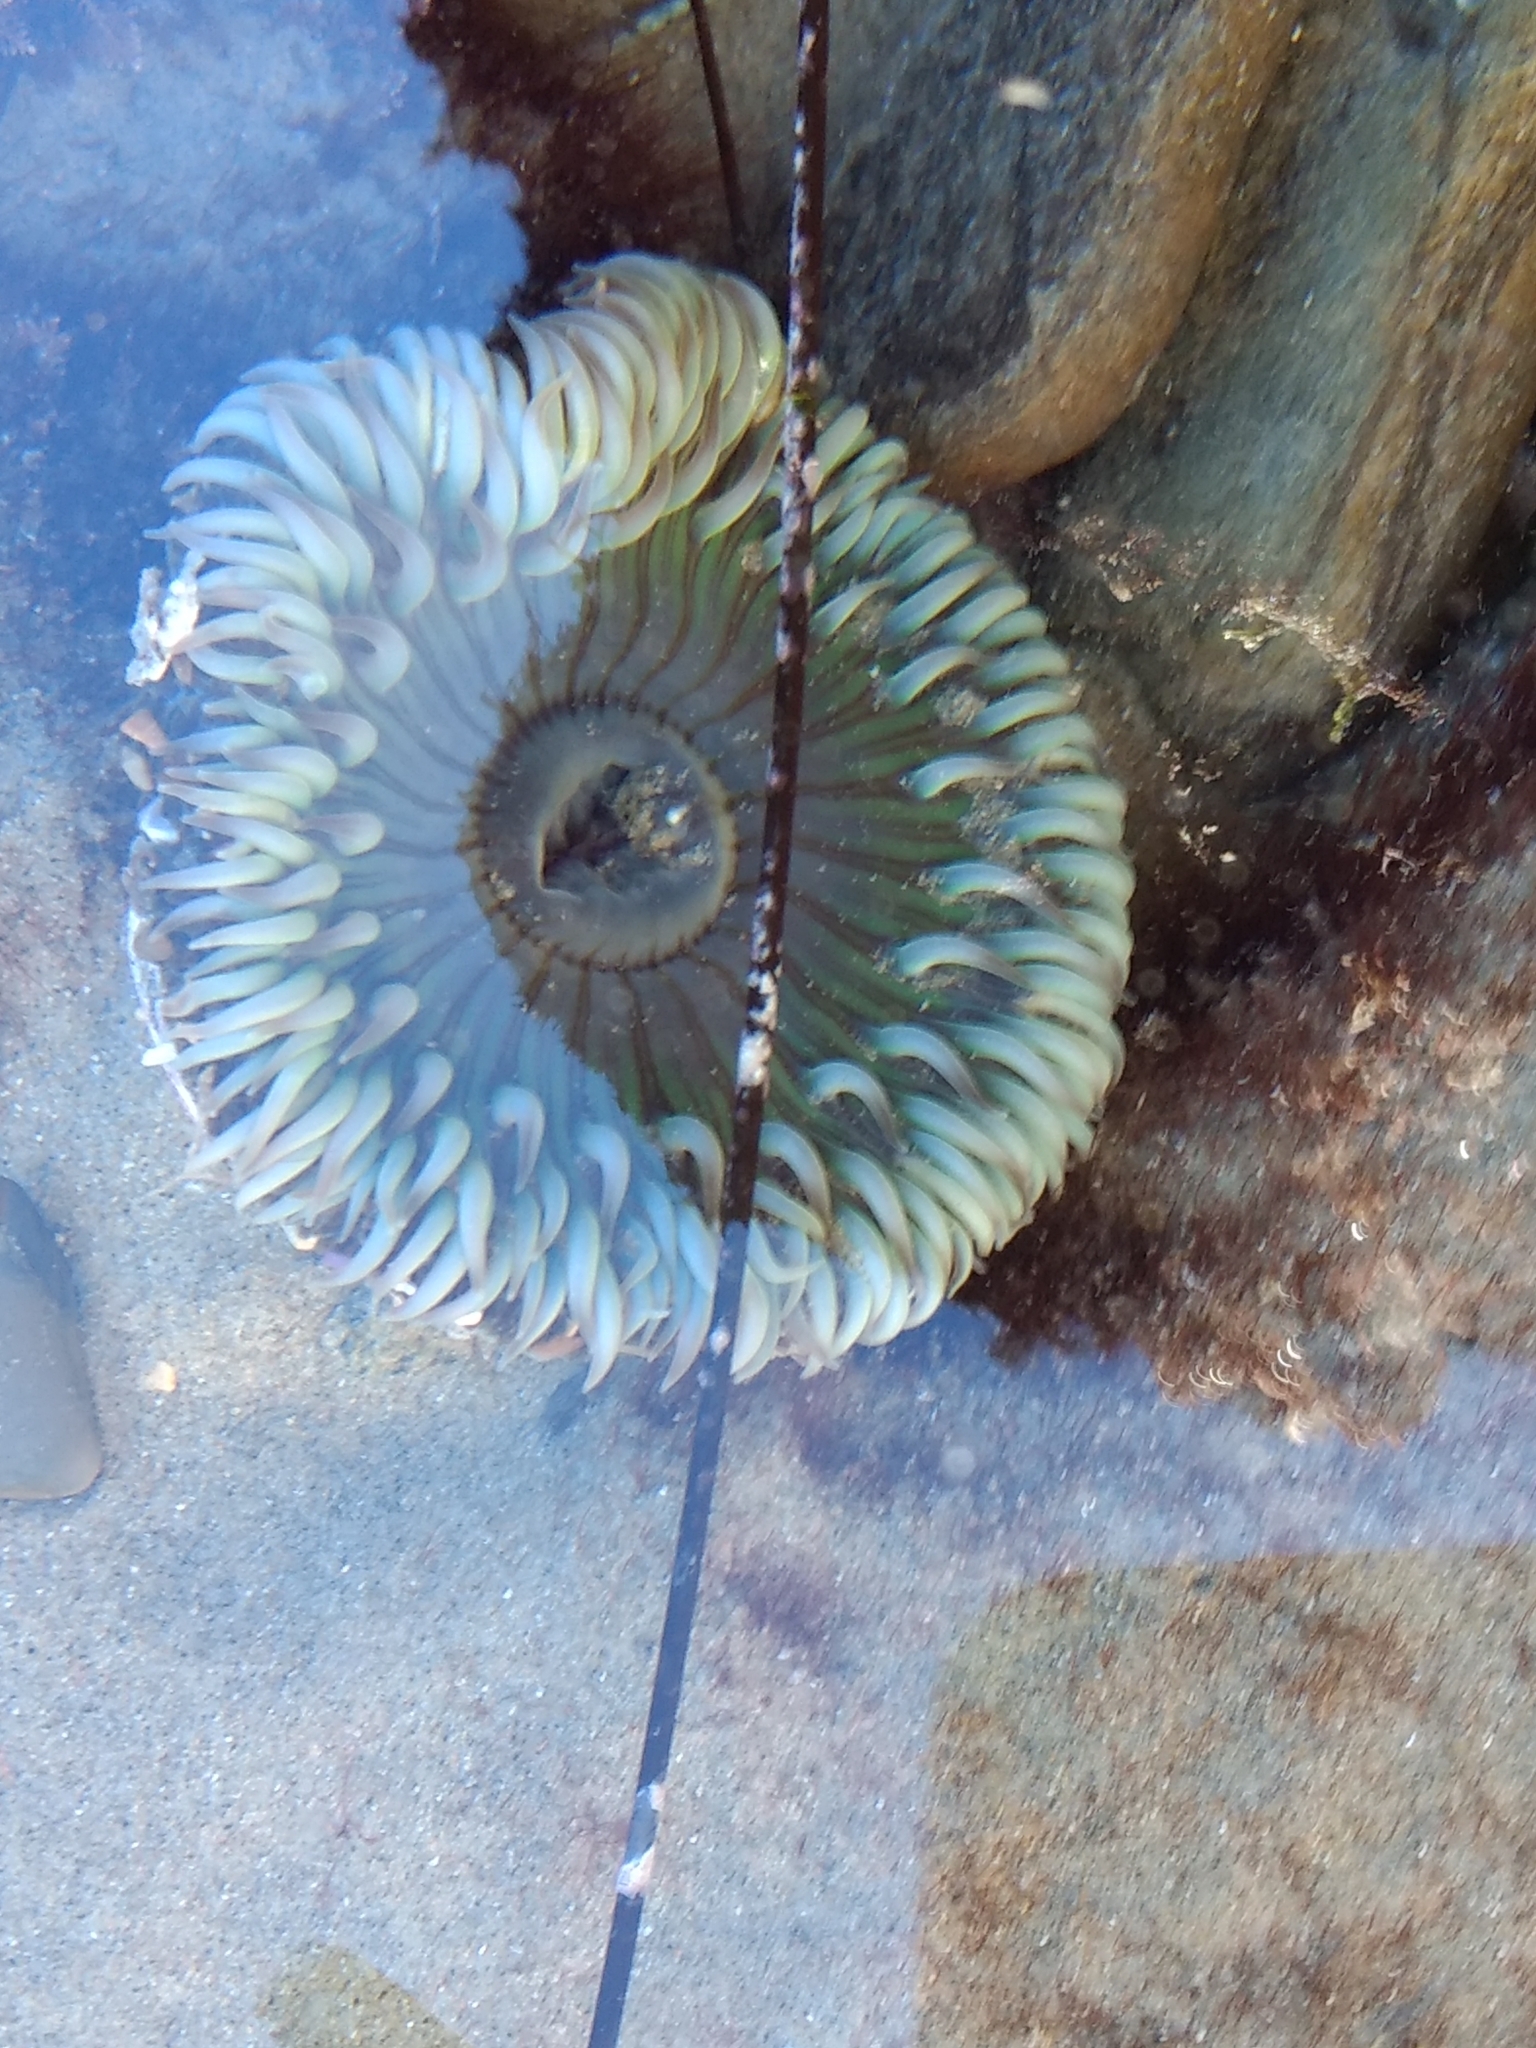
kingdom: Animalia
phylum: Cnidaria
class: Anthozoa
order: Actiniaria
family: Actiniidae
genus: Anthopleura
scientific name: Anthopleura sola
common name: Sun anemone
